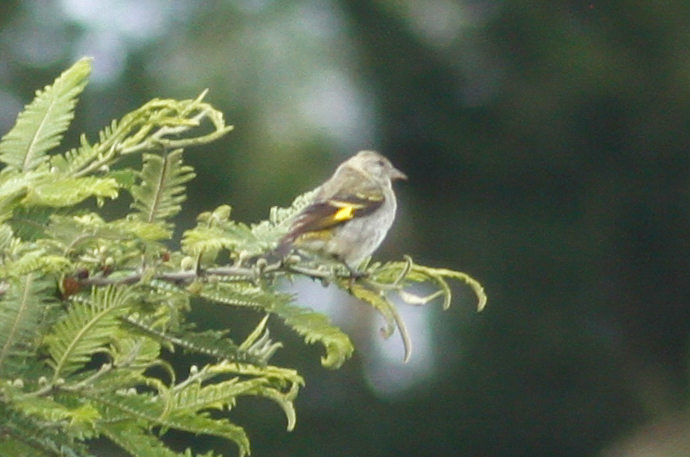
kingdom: Animalia
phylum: Chordata
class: Aves
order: Passeriformes
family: Fringillidae
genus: Spinus
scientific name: Spinus magellanicus
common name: Hooded siskin
